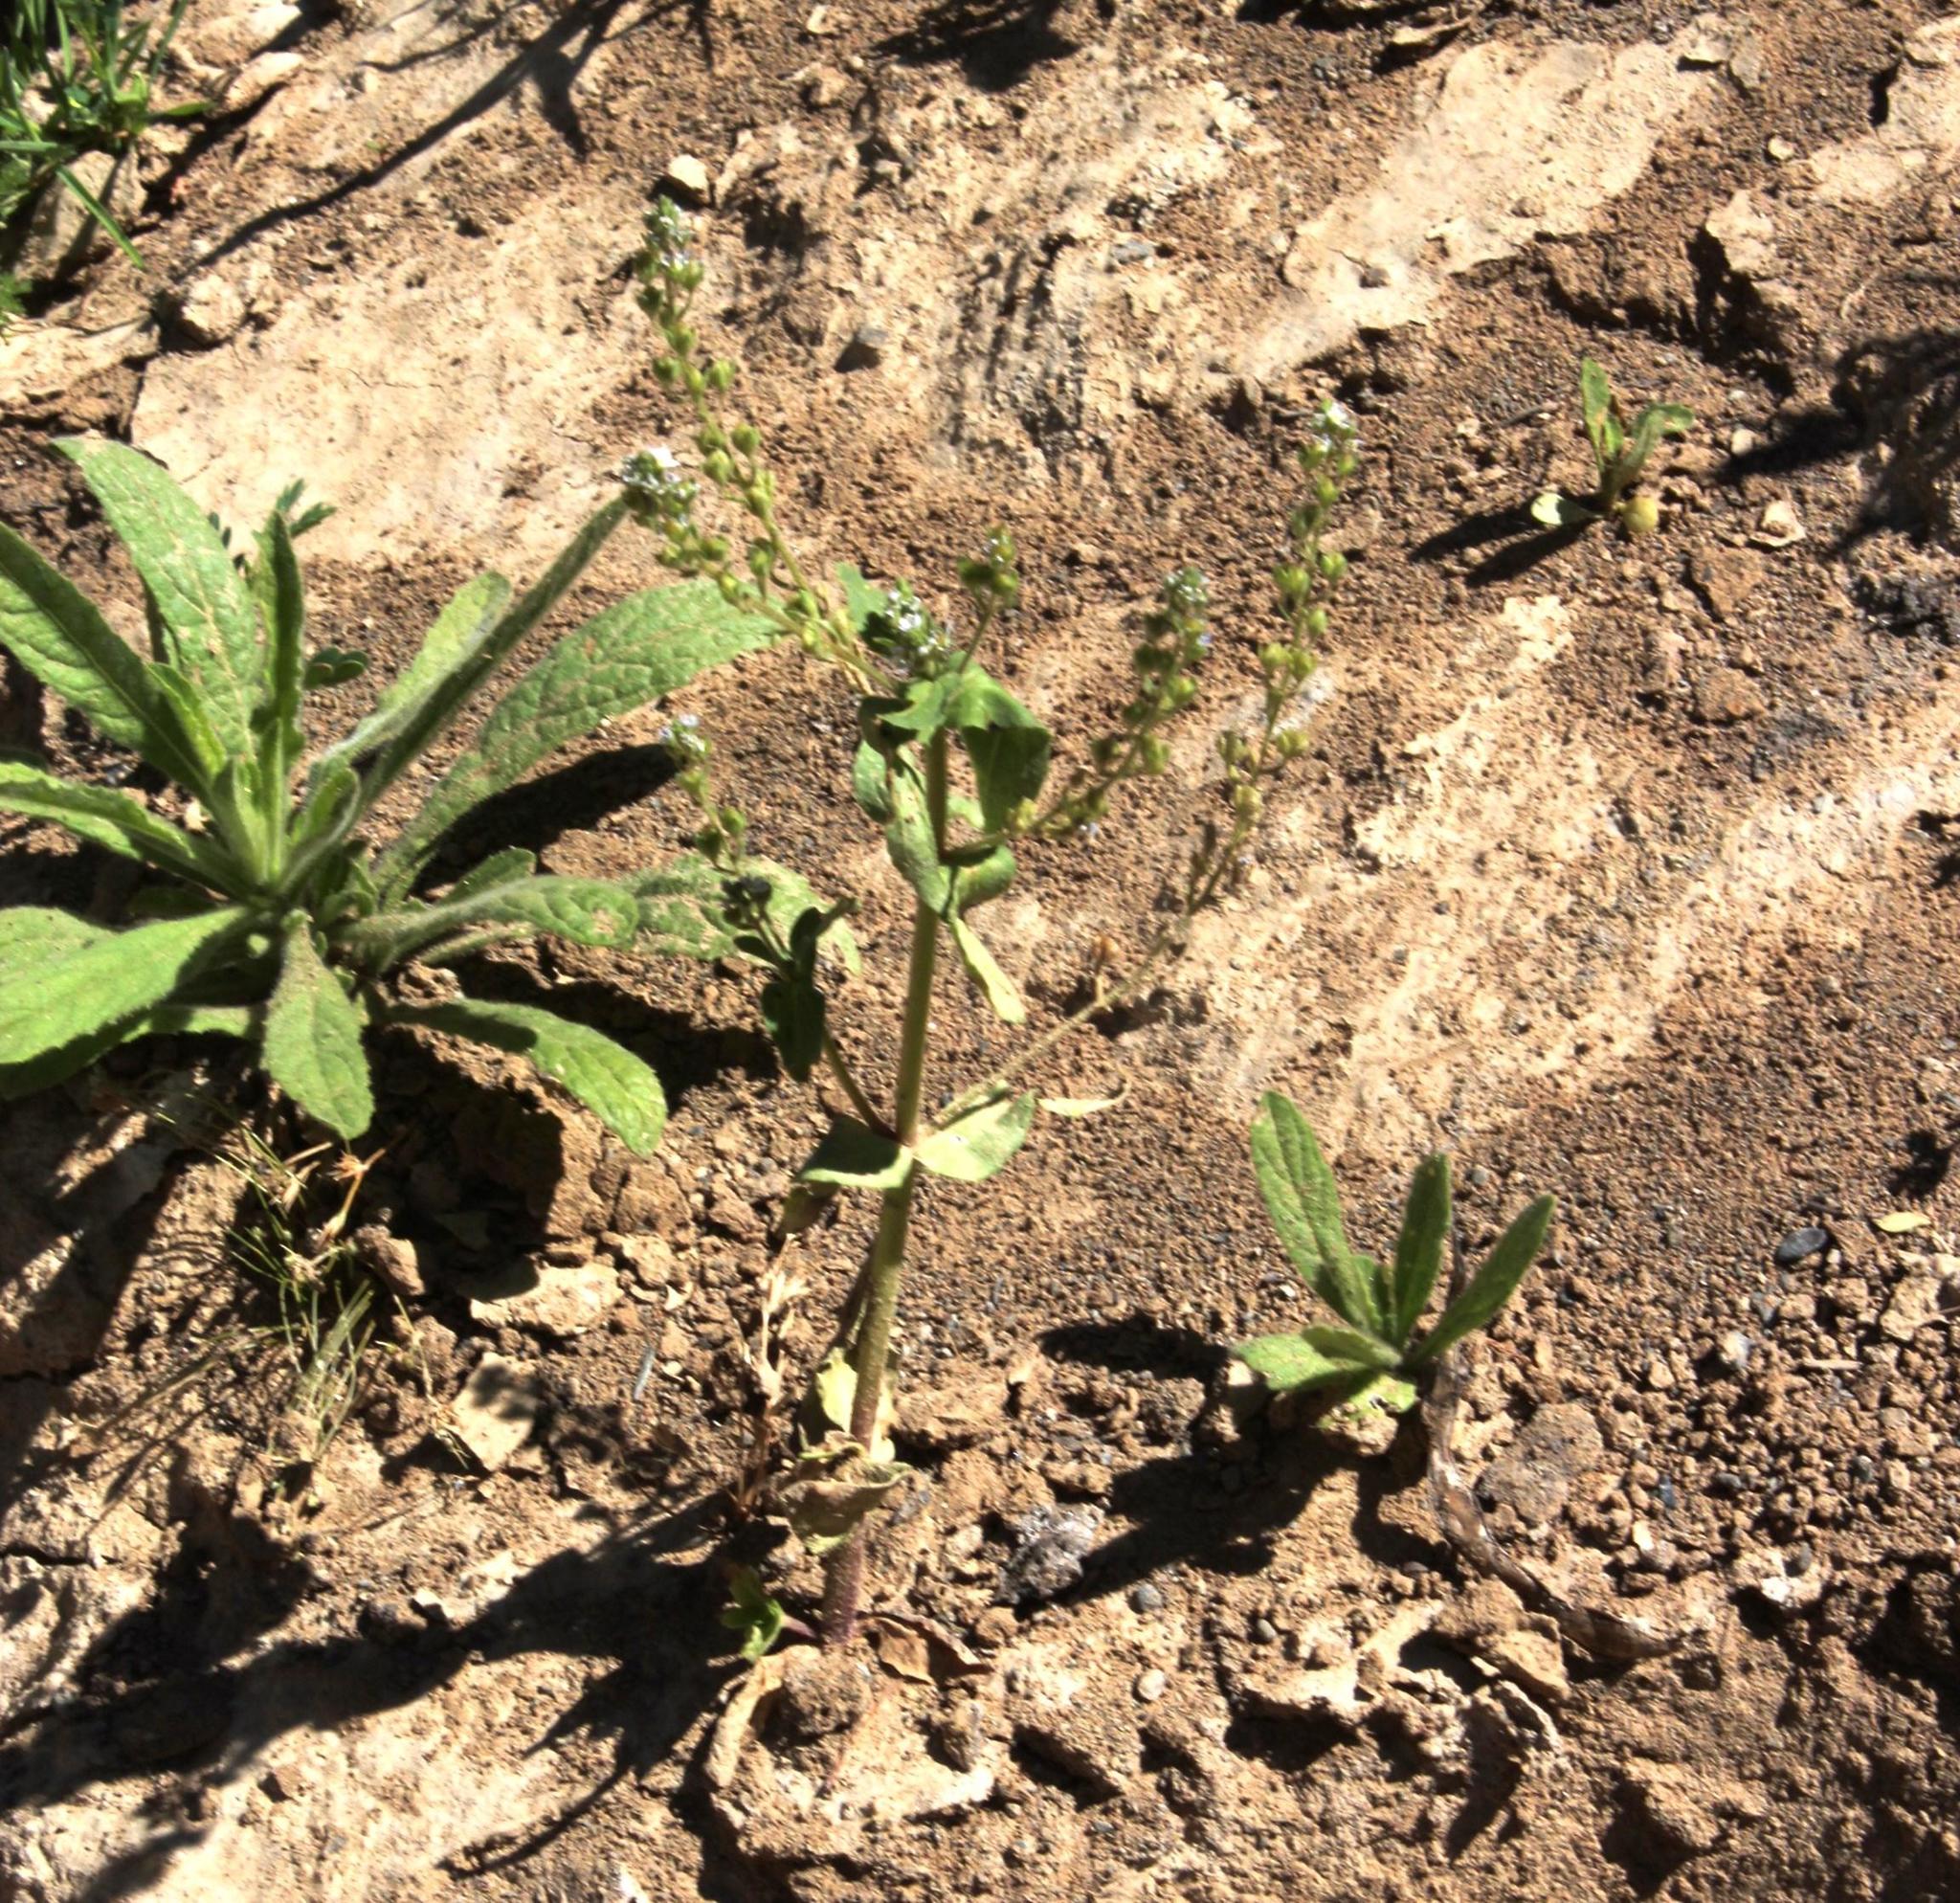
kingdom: Plantae
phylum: Tracheophyta
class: Magnoliopsida
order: Lamiales
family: Plantaginaceae
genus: Veronica
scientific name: Veronica anagallis-aquatica
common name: Water speedwell
